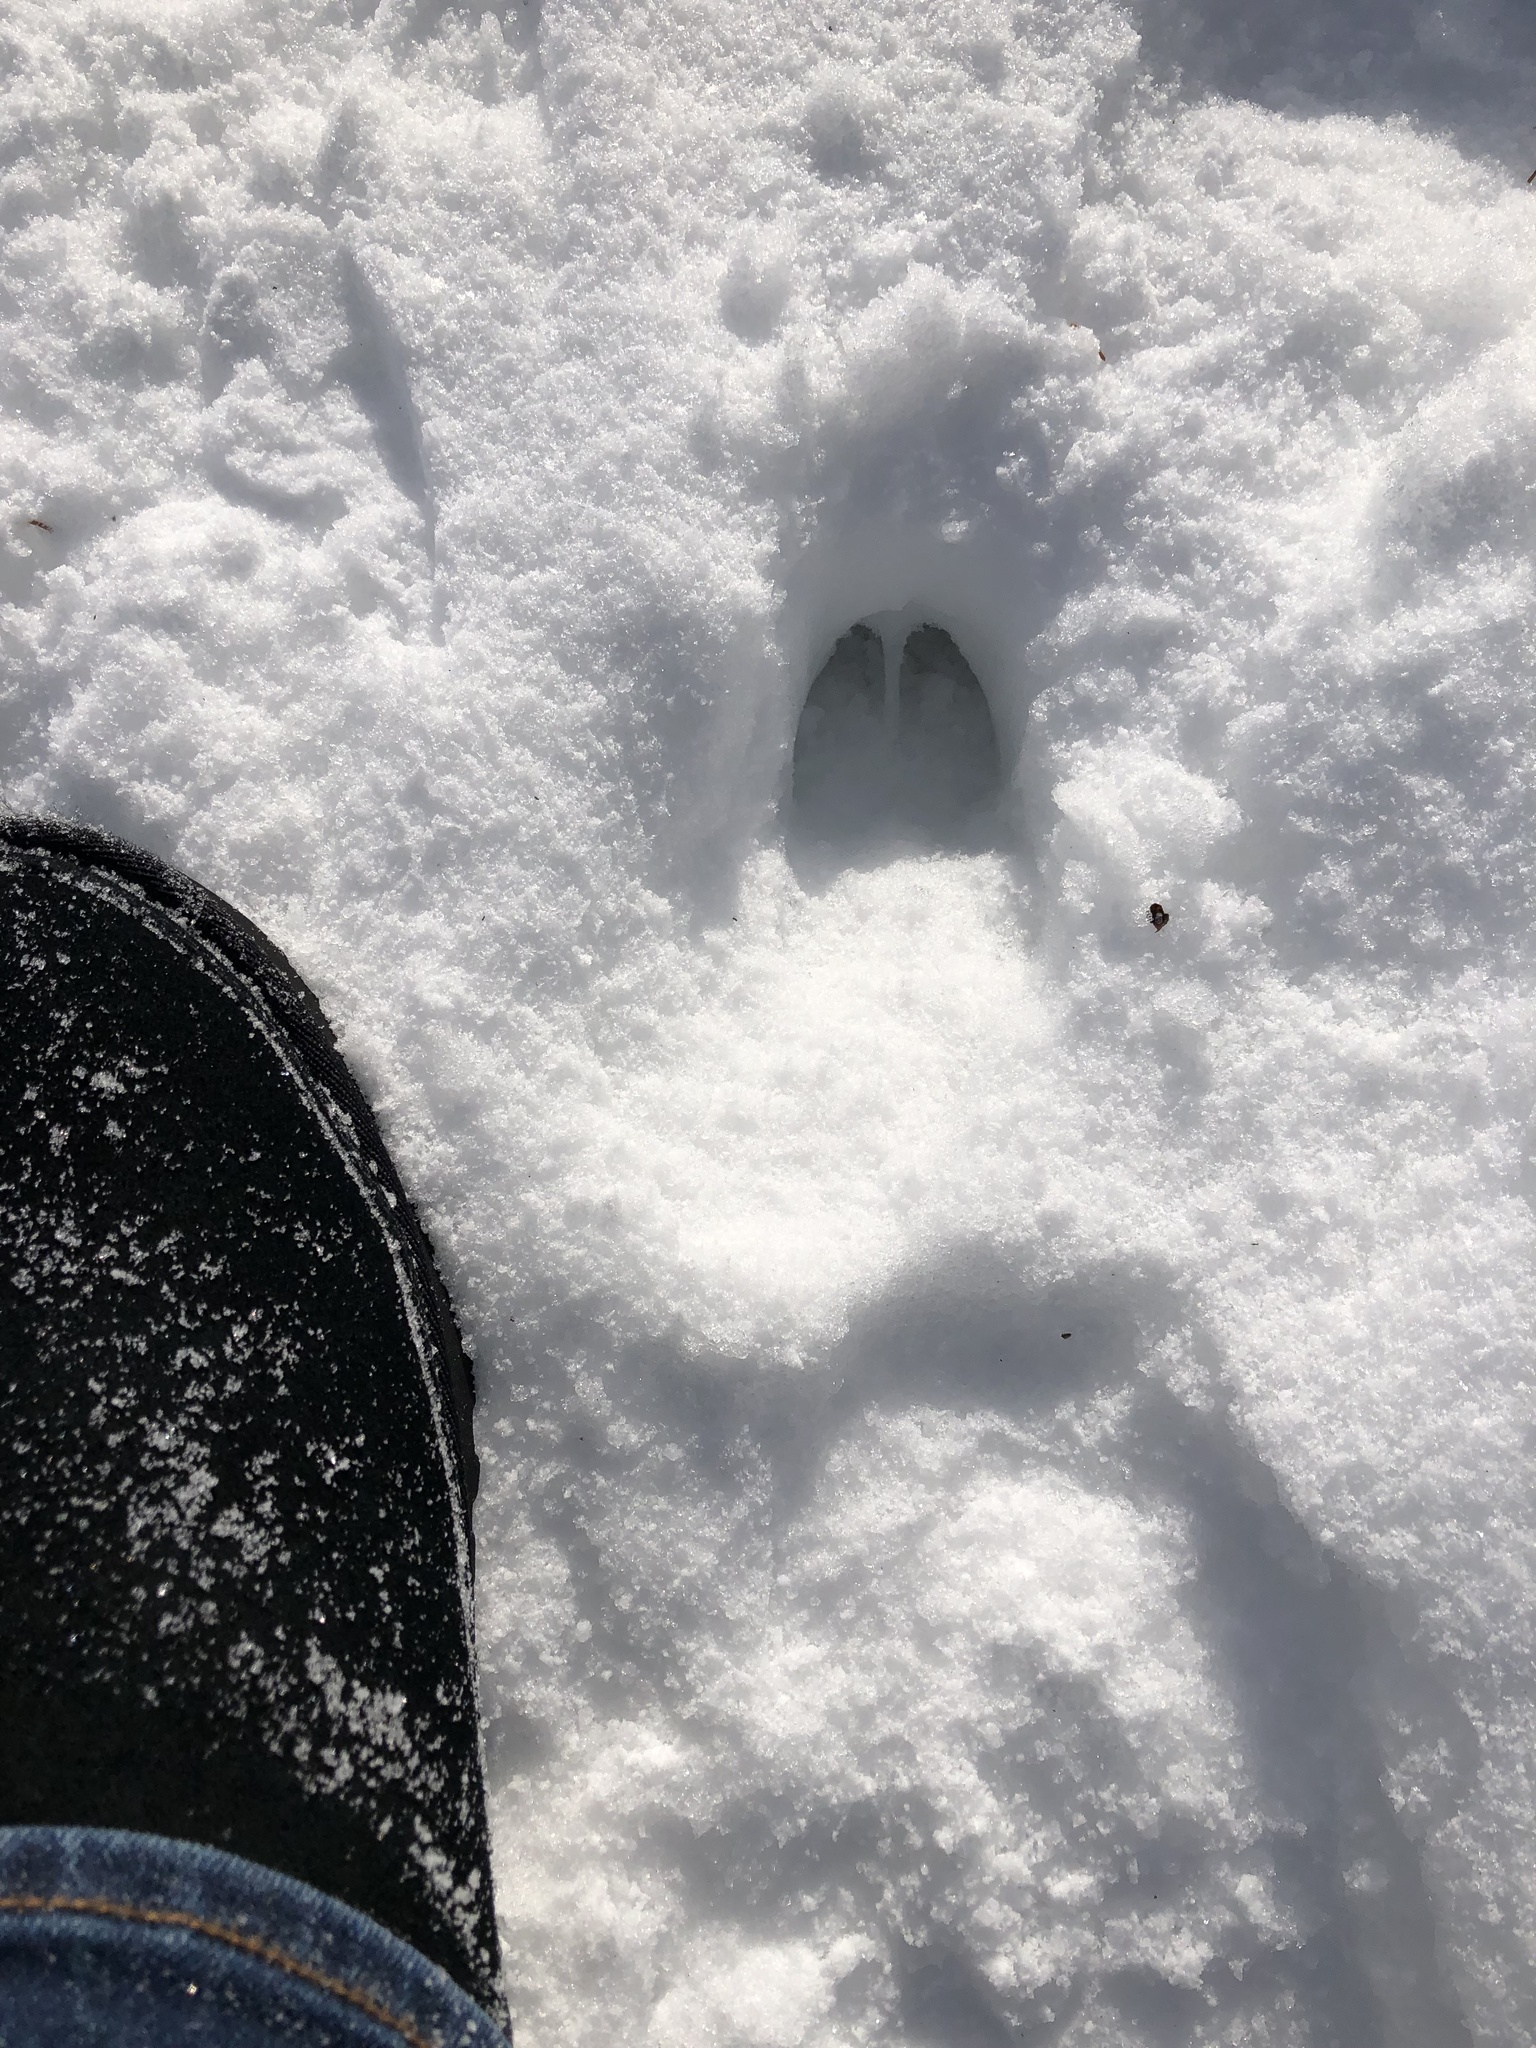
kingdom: Animalia
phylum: Chordata
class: Mammalia
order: Artiodactyla
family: Cervidae
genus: Odocoileus
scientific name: Odocoileus virginianus
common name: White-tailed deer
